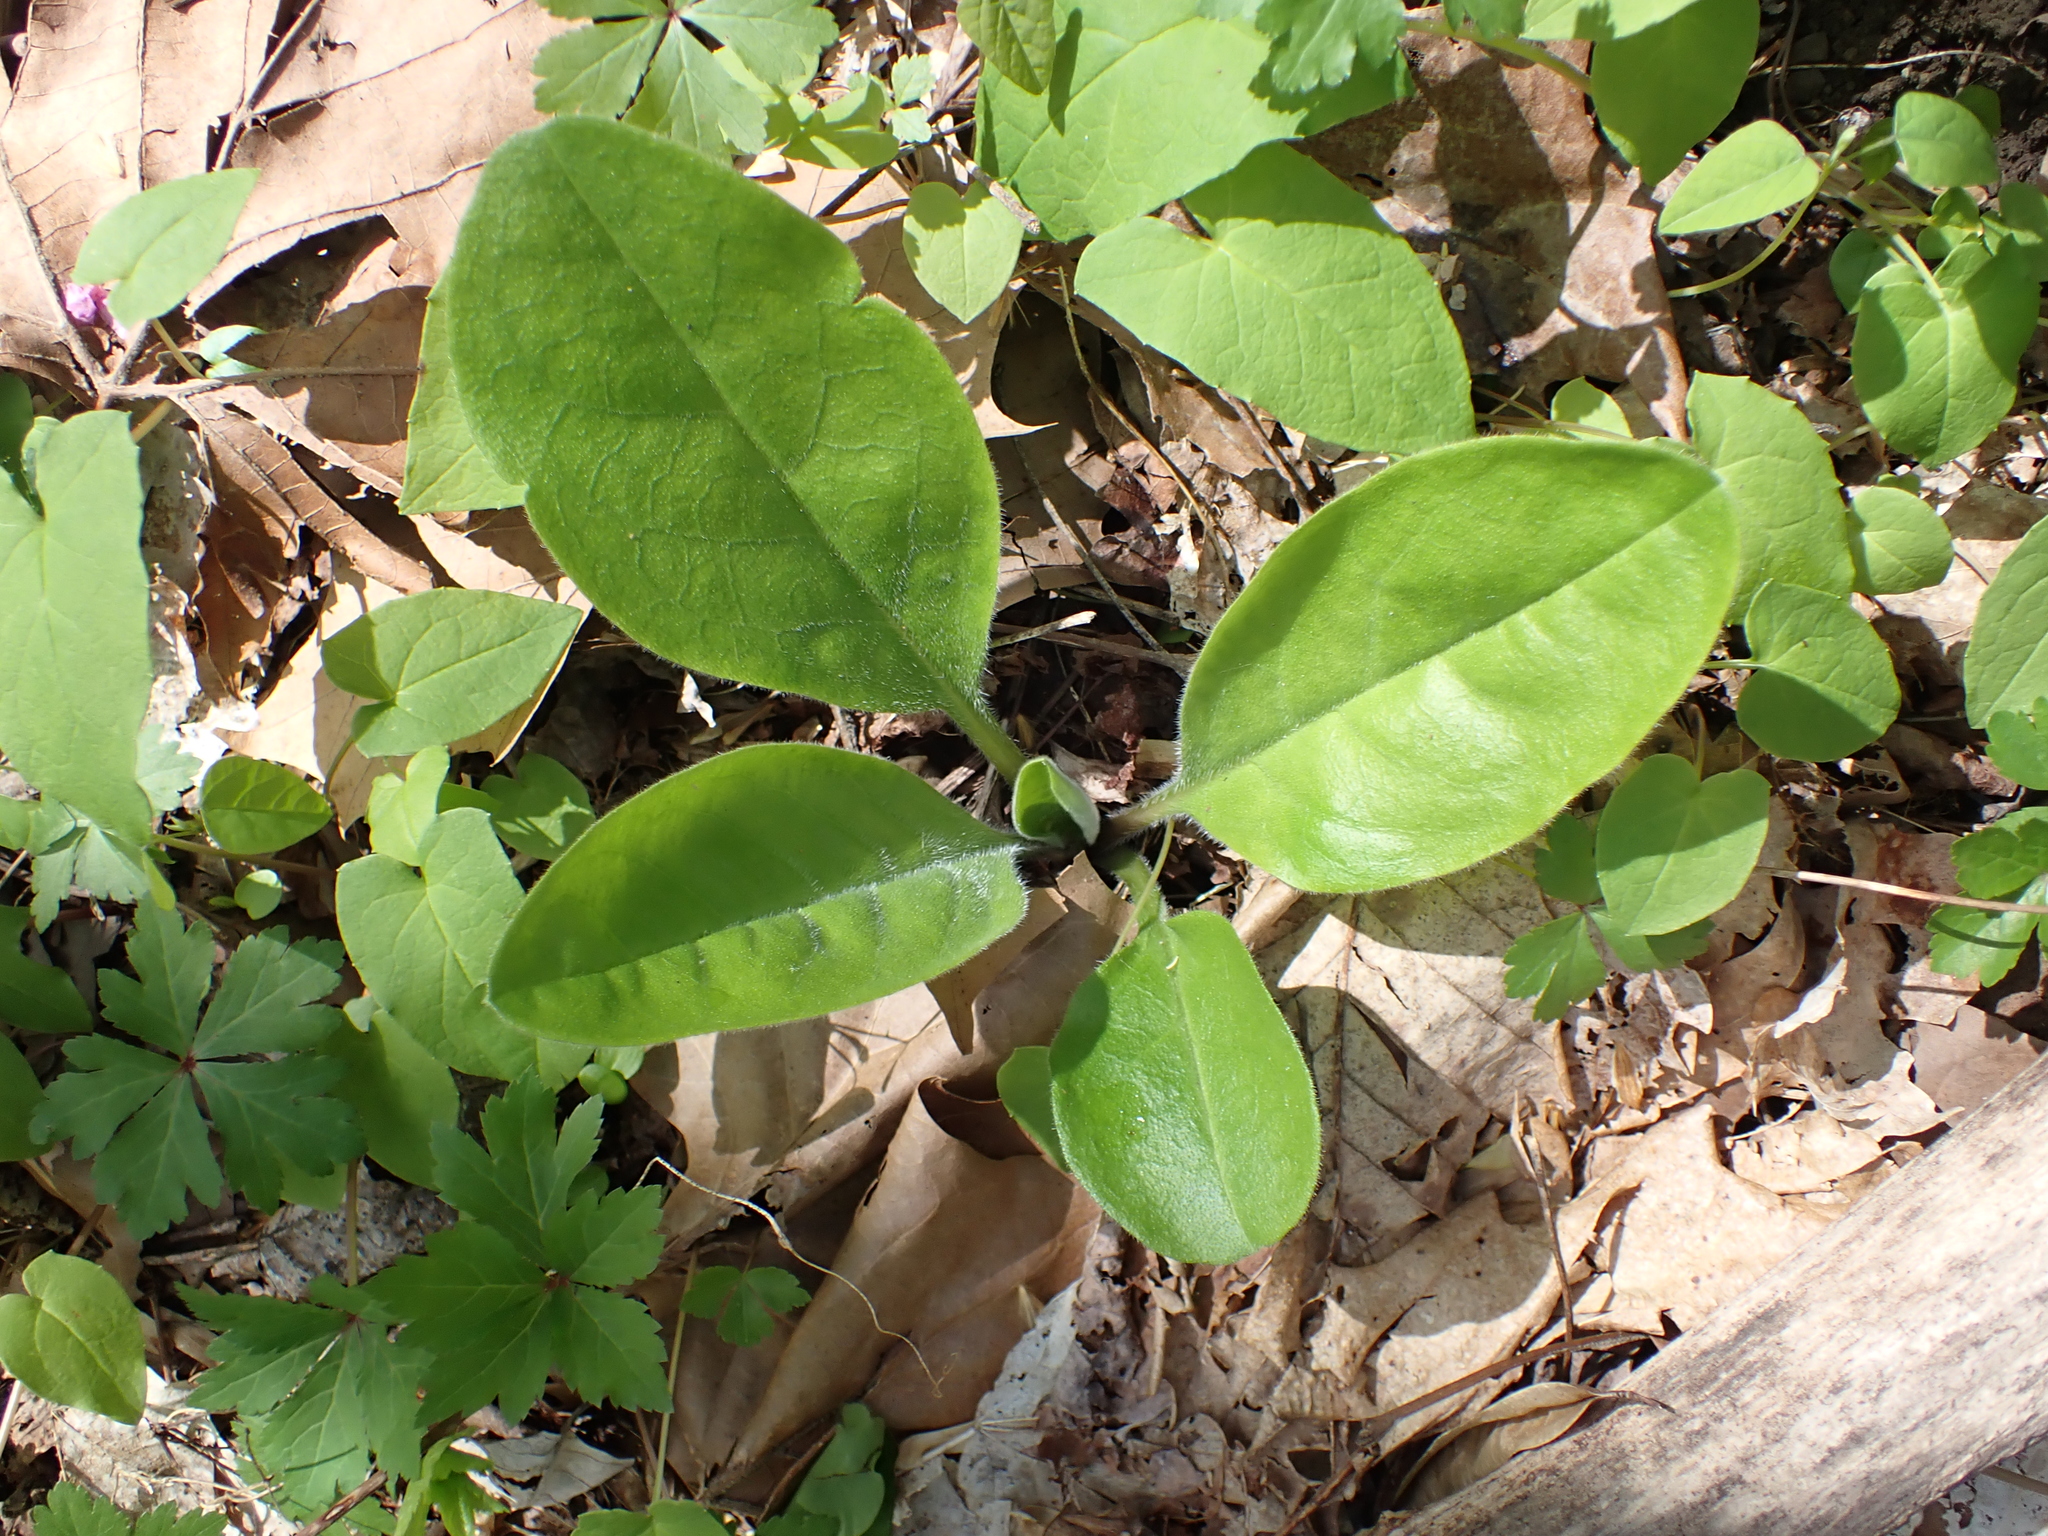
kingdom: Plantae
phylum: Tracheophyta
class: Magnoliopsida
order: Boraginales
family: Boraginaceae
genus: Andersonglossum
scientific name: Andersonglossum virginianum
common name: Wild comfrey
